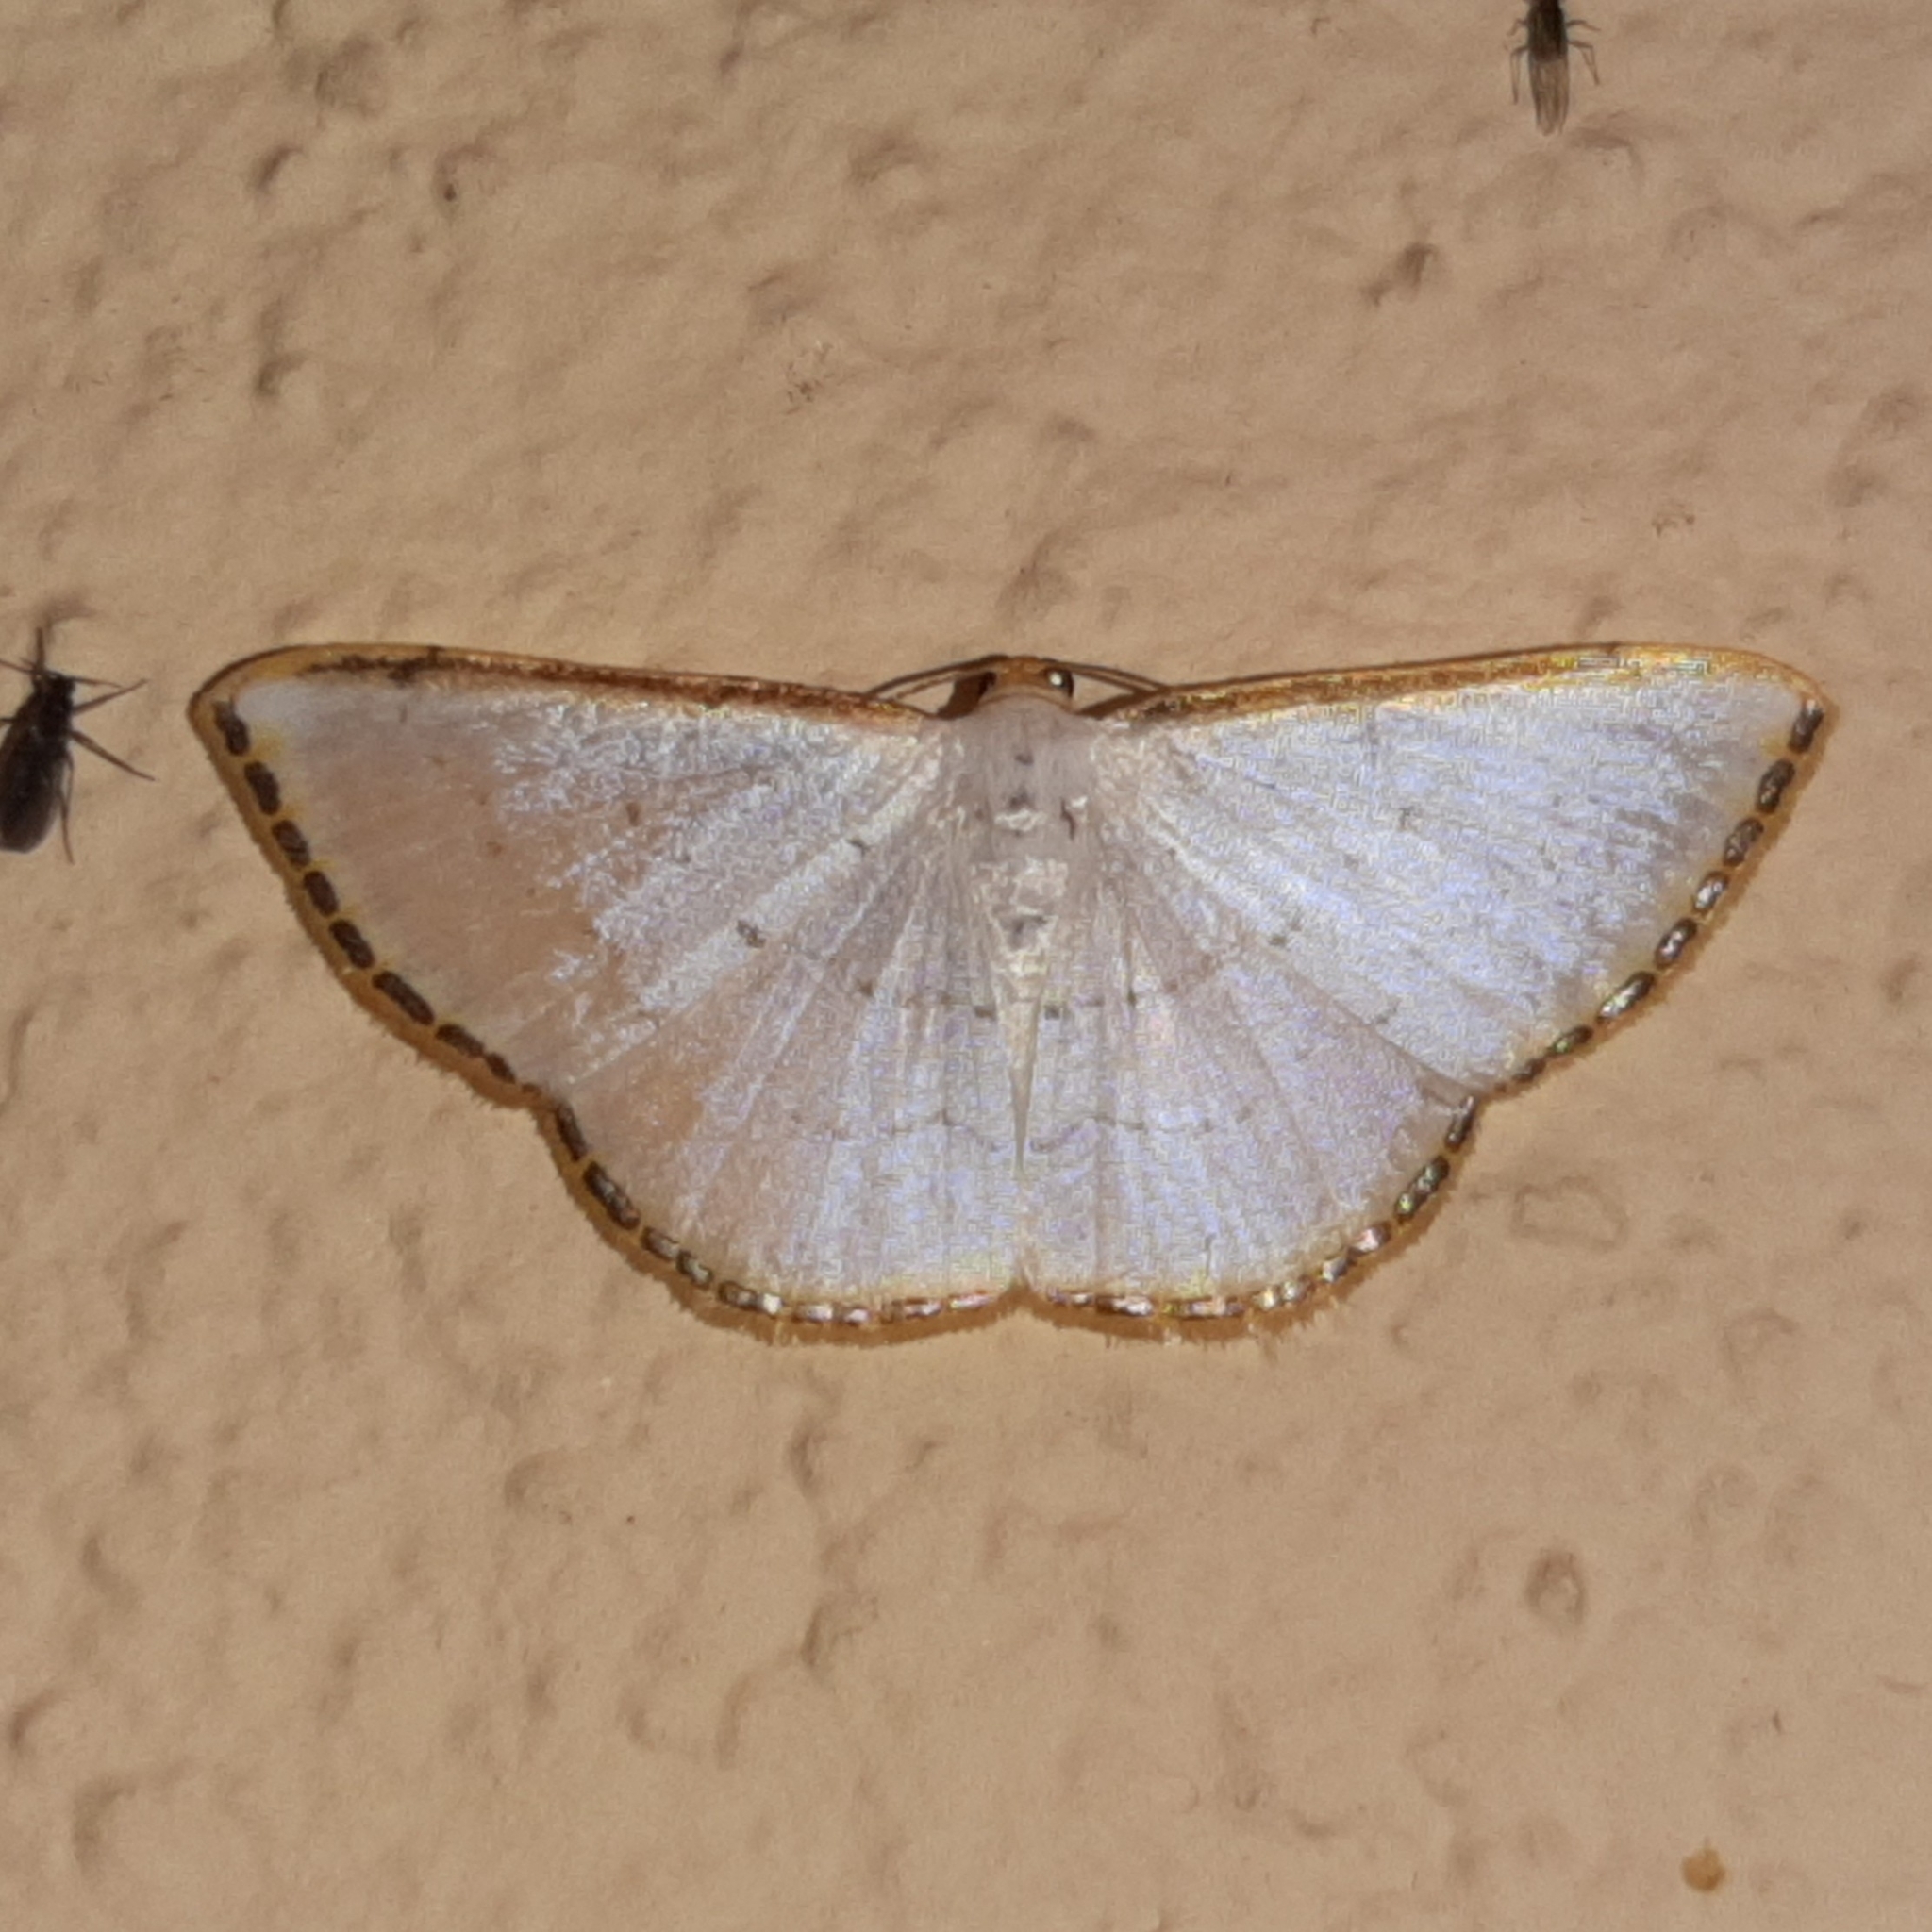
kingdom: Animalia
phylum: Arthropoda
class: Insecta
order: Lepidoptera
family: Geometridae
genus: Leuciris
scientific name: Leuciris fimbriaria
